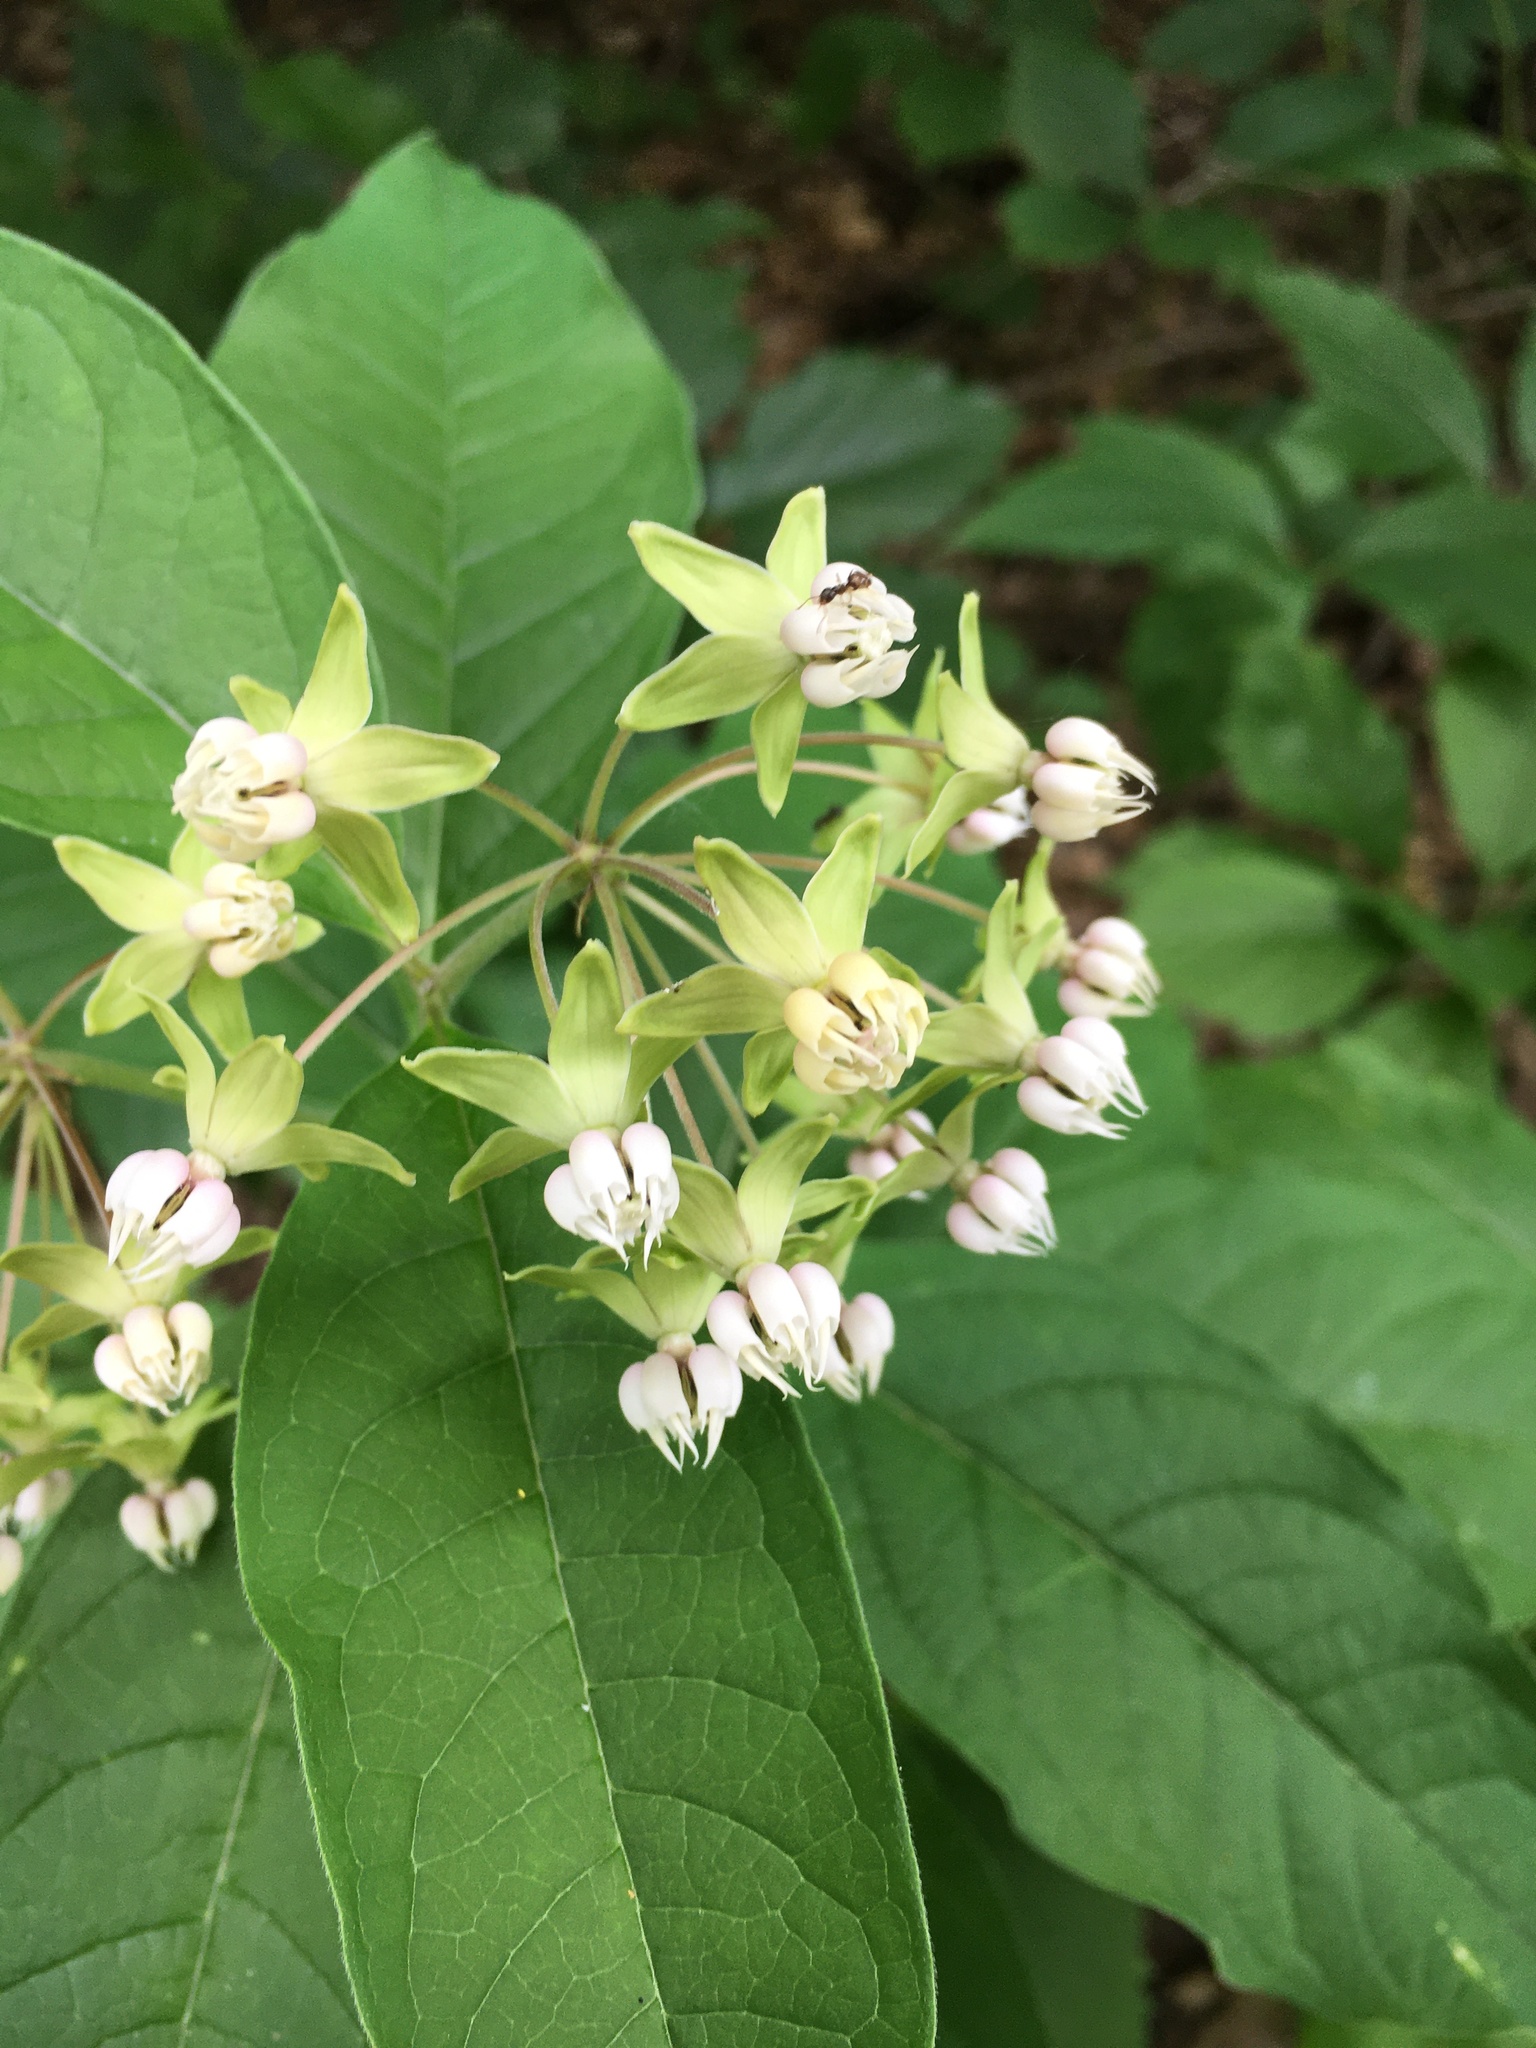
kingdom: Plantae
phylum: Tracheophyta
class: Magnoliopsida
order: Gentianales
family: Apocynaceae
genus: Asclepias
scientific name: Asclepias exaltata
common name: Poke milkweed
